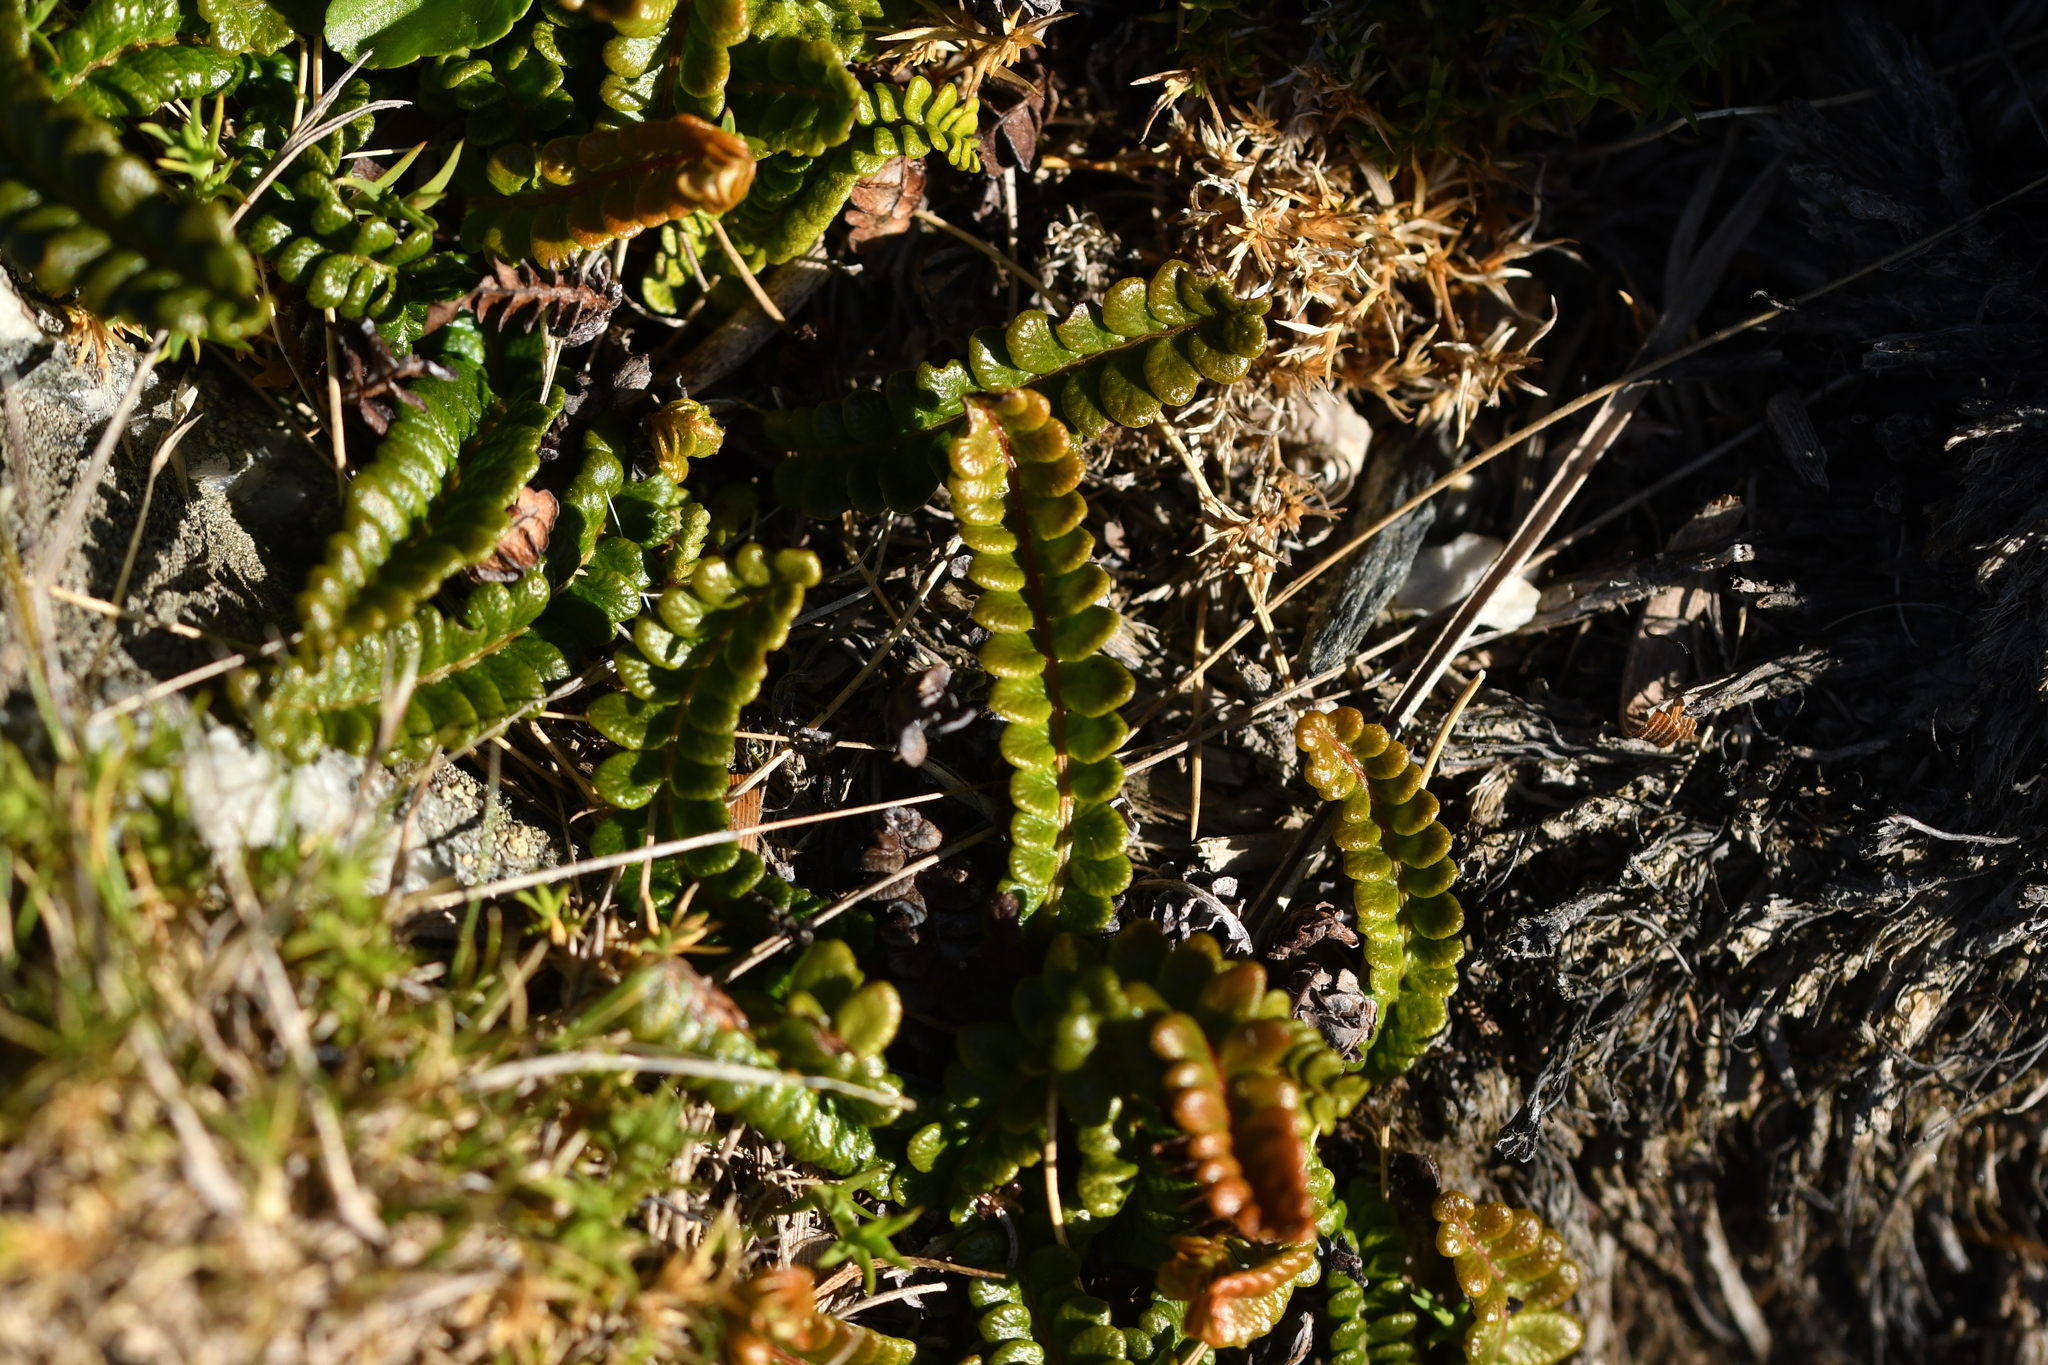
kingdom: Plantae
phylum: Tracheophyta
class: Polypodiopsida
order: Polypodiales
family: Blechnaceae
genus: Austroblechnum
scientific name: Austroblechnum penna-marina
